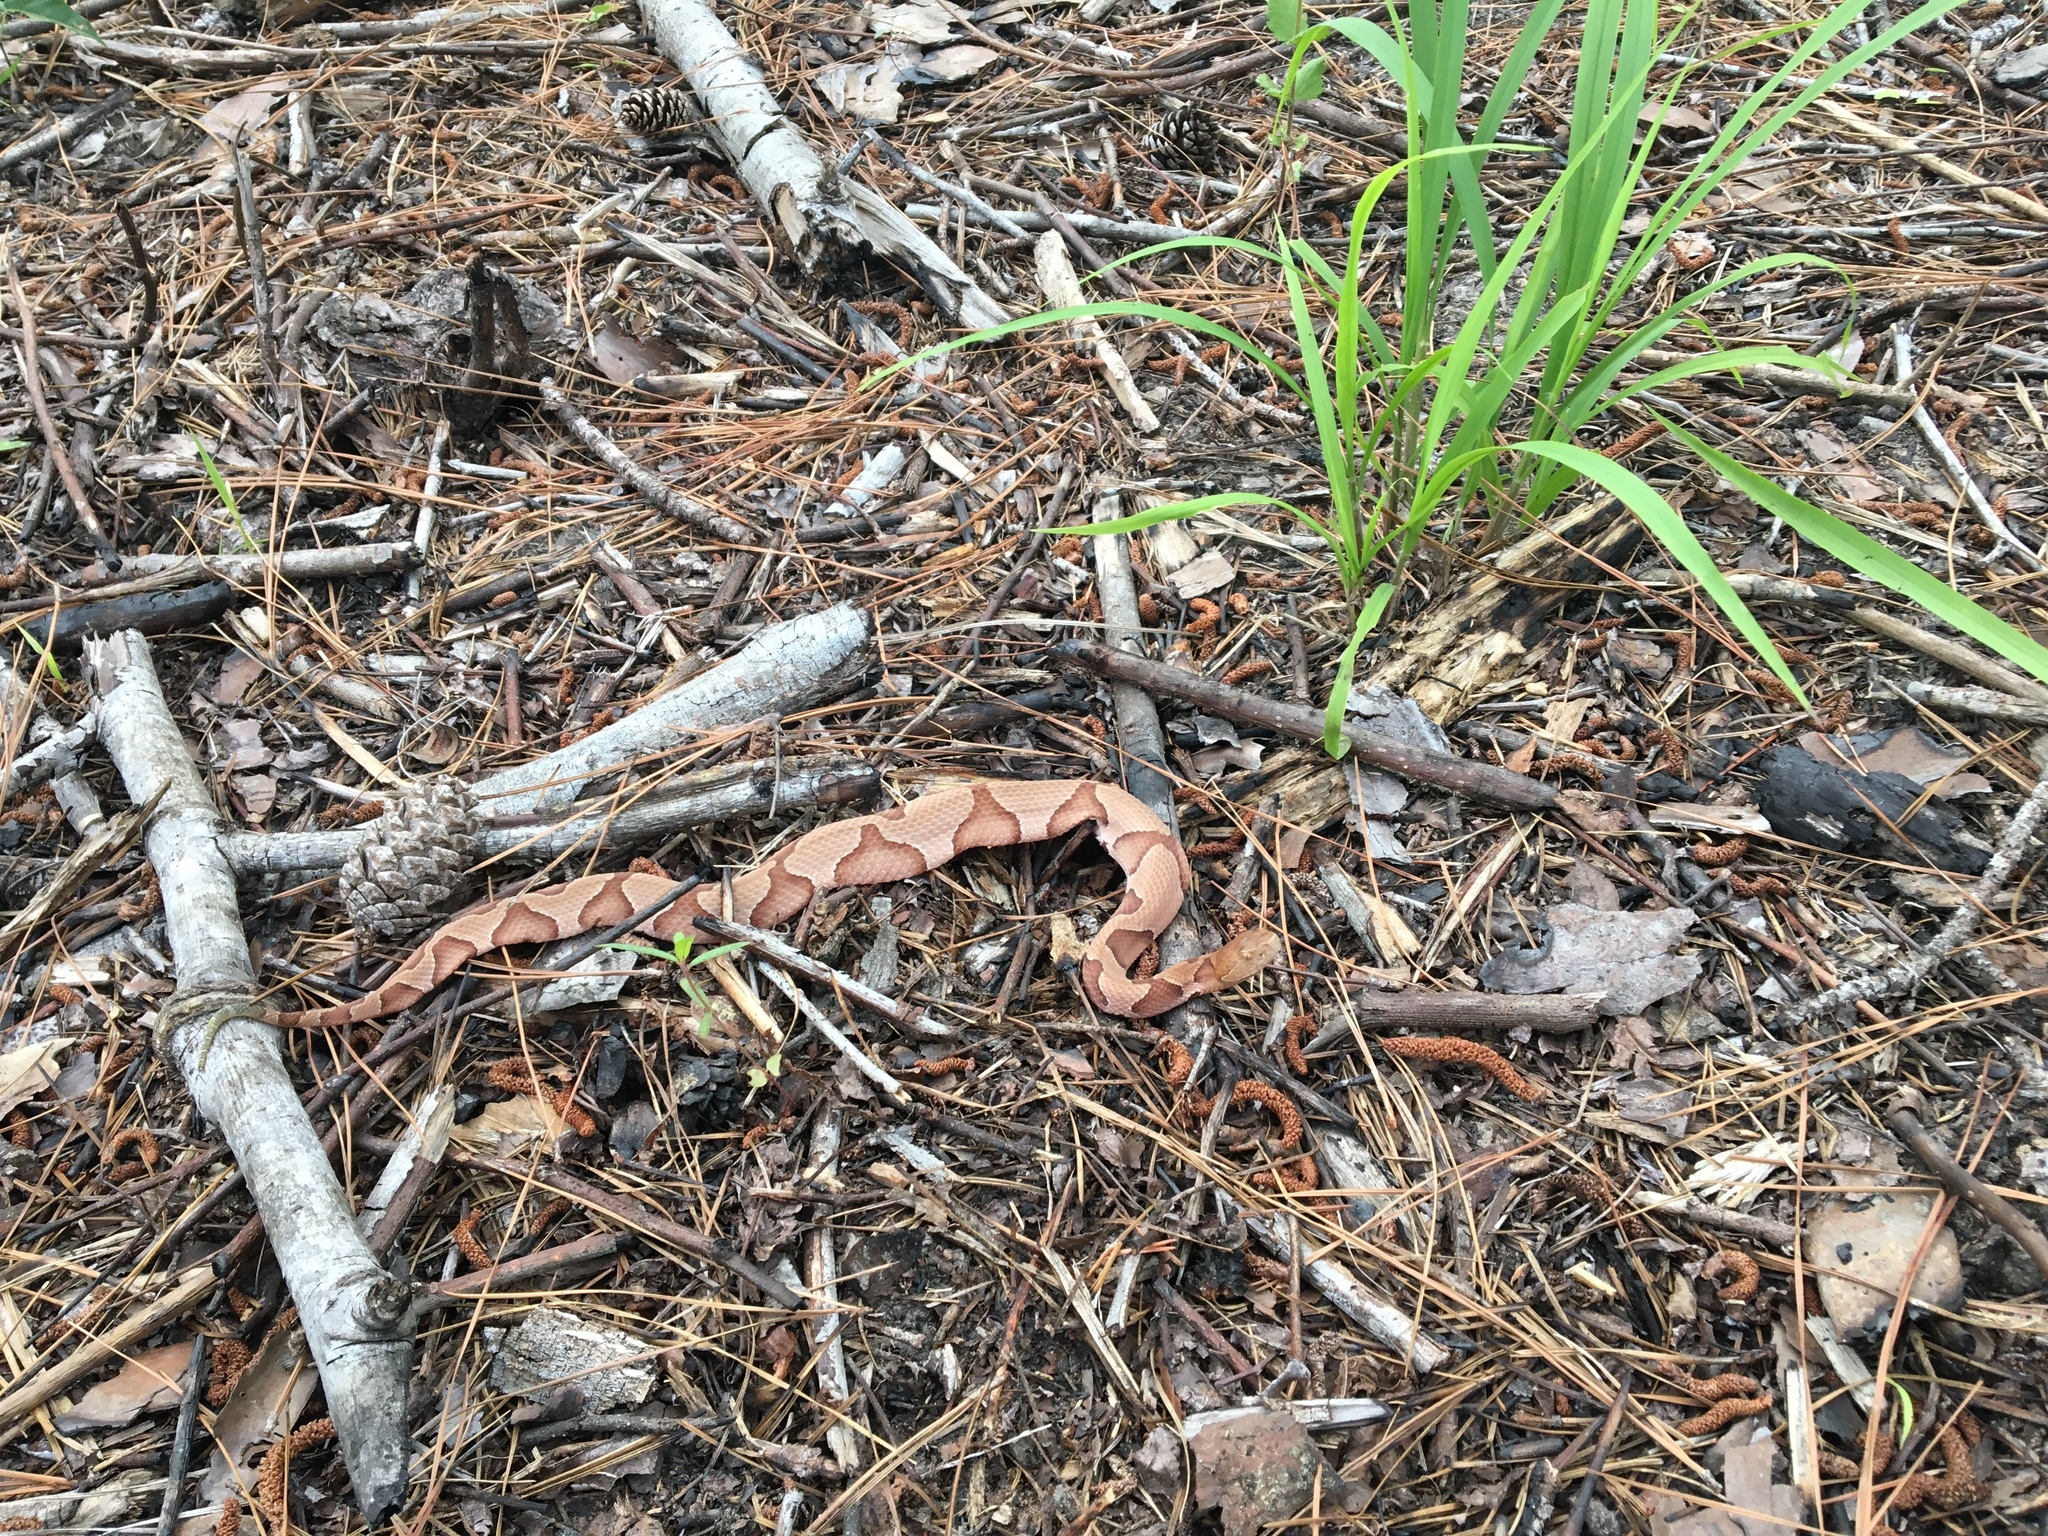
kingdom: Animalia
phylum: Chordata
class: Squamata
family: Viperidae
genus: Agkistrodon
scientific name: Agkistrodon contortrix
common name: Northern copperhead
